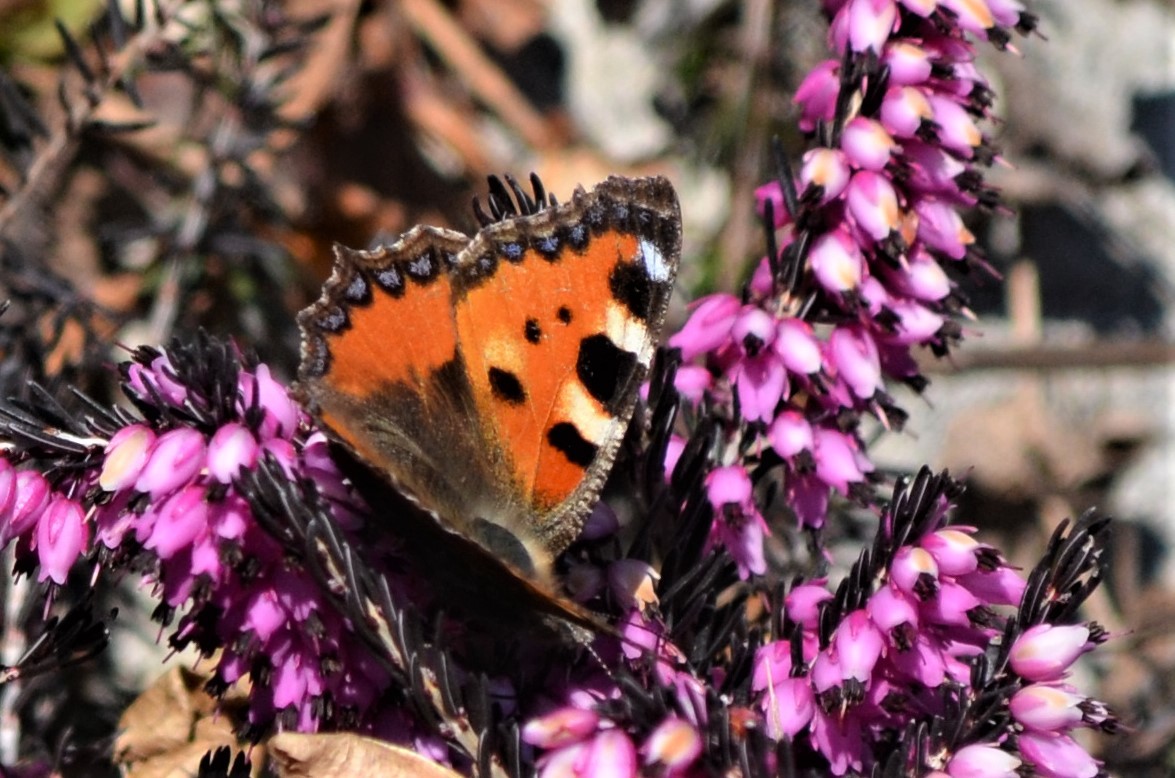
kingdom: Animalia
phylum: Arthropoda
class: Insecta
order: Lepidoptera
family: Nymphalidae
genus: Aglais
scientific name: Aglais urticae
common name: Small tortoiseshell
